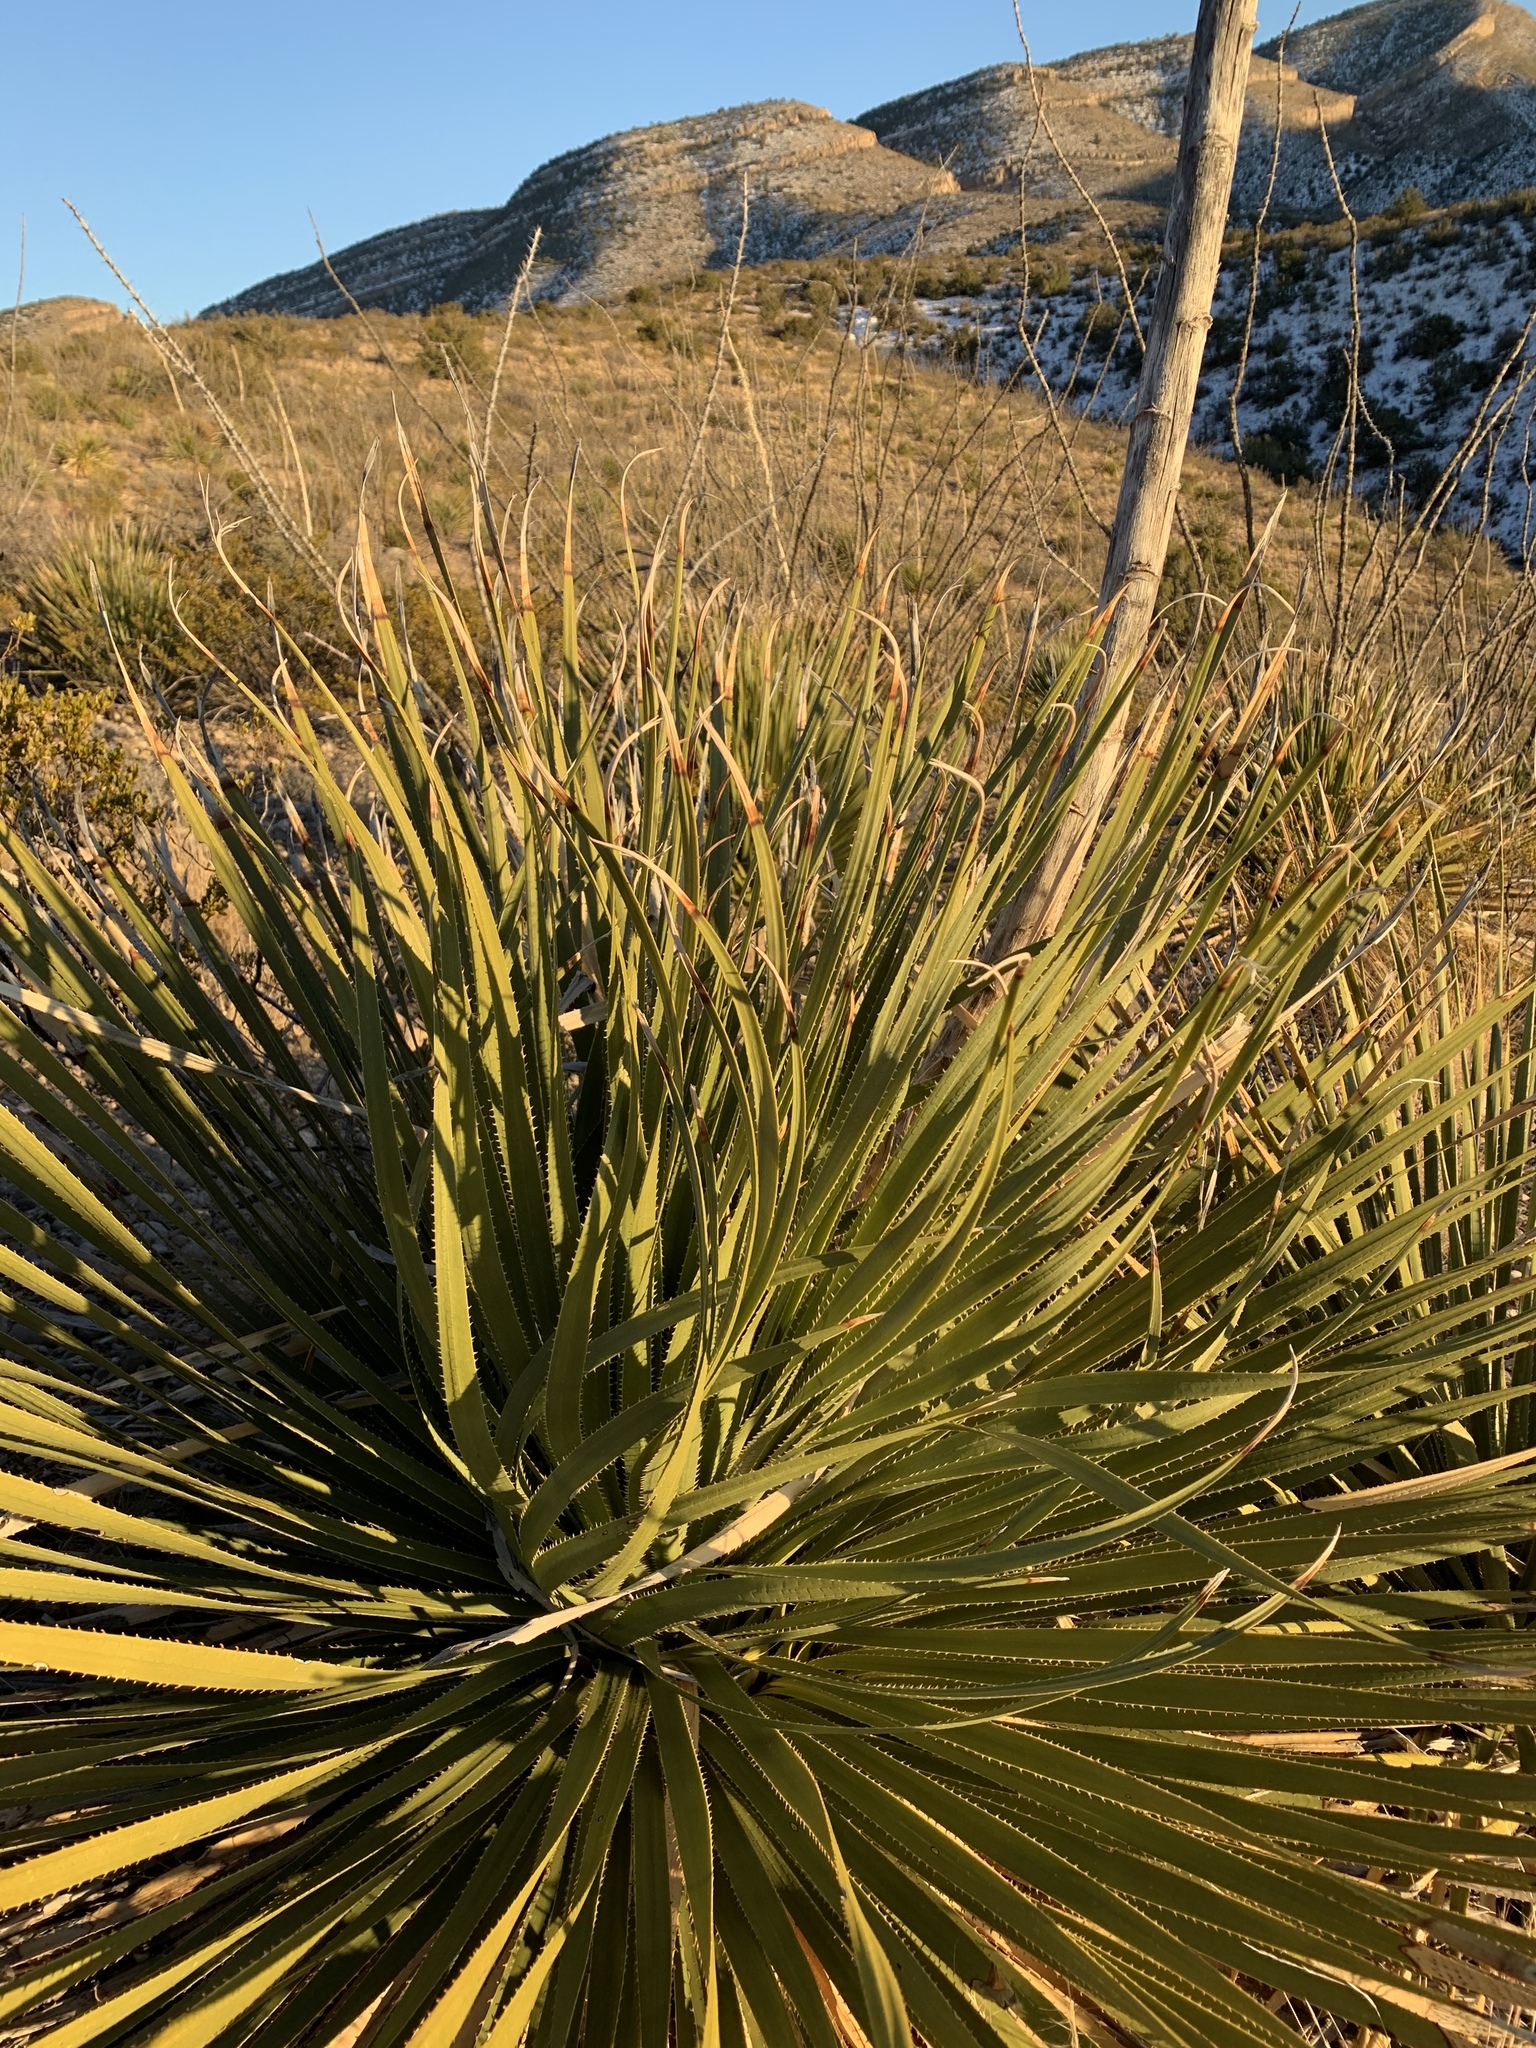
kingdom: Plantae
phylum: Tracheophyta
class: Liliopsida
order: Asparagales
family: Asparagaceae
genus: Dasylirion
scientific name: Dasylirion wheeleri
